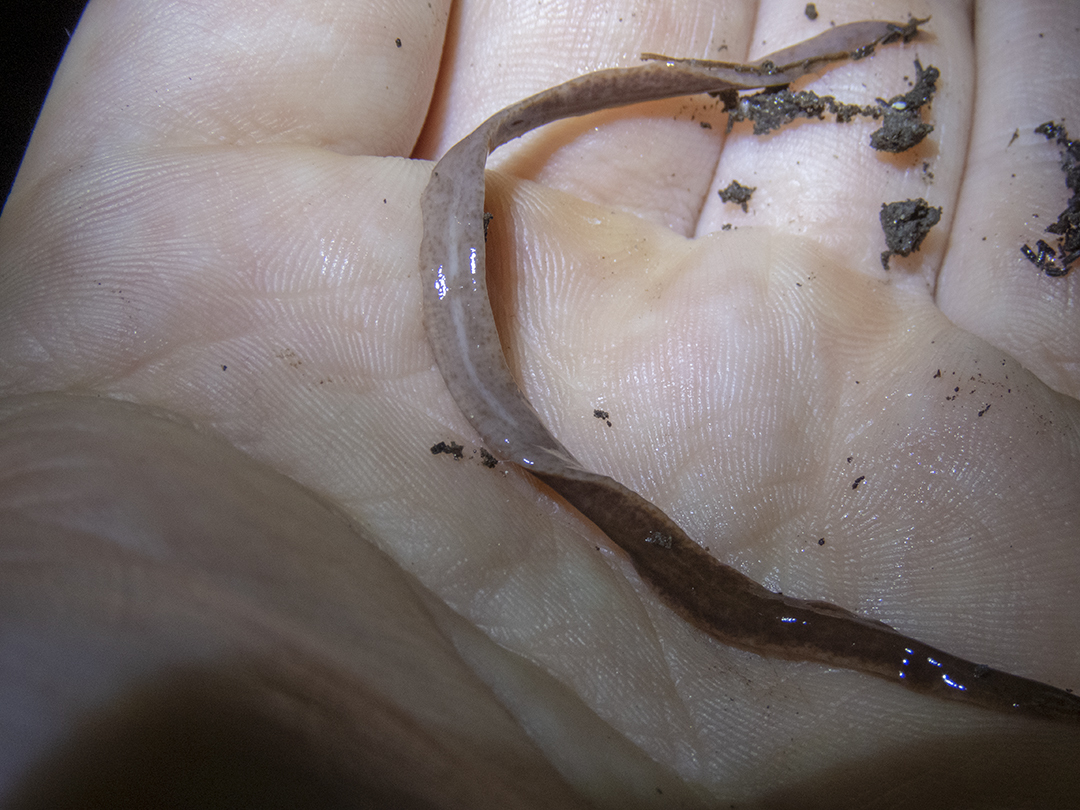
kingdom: Animalia
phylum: Platyhelminthes
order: Tricladida
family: Geoplanidae
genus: Arthurdendyus
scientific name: Arthurdendyus triangulatus
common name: New zealand flatworm
